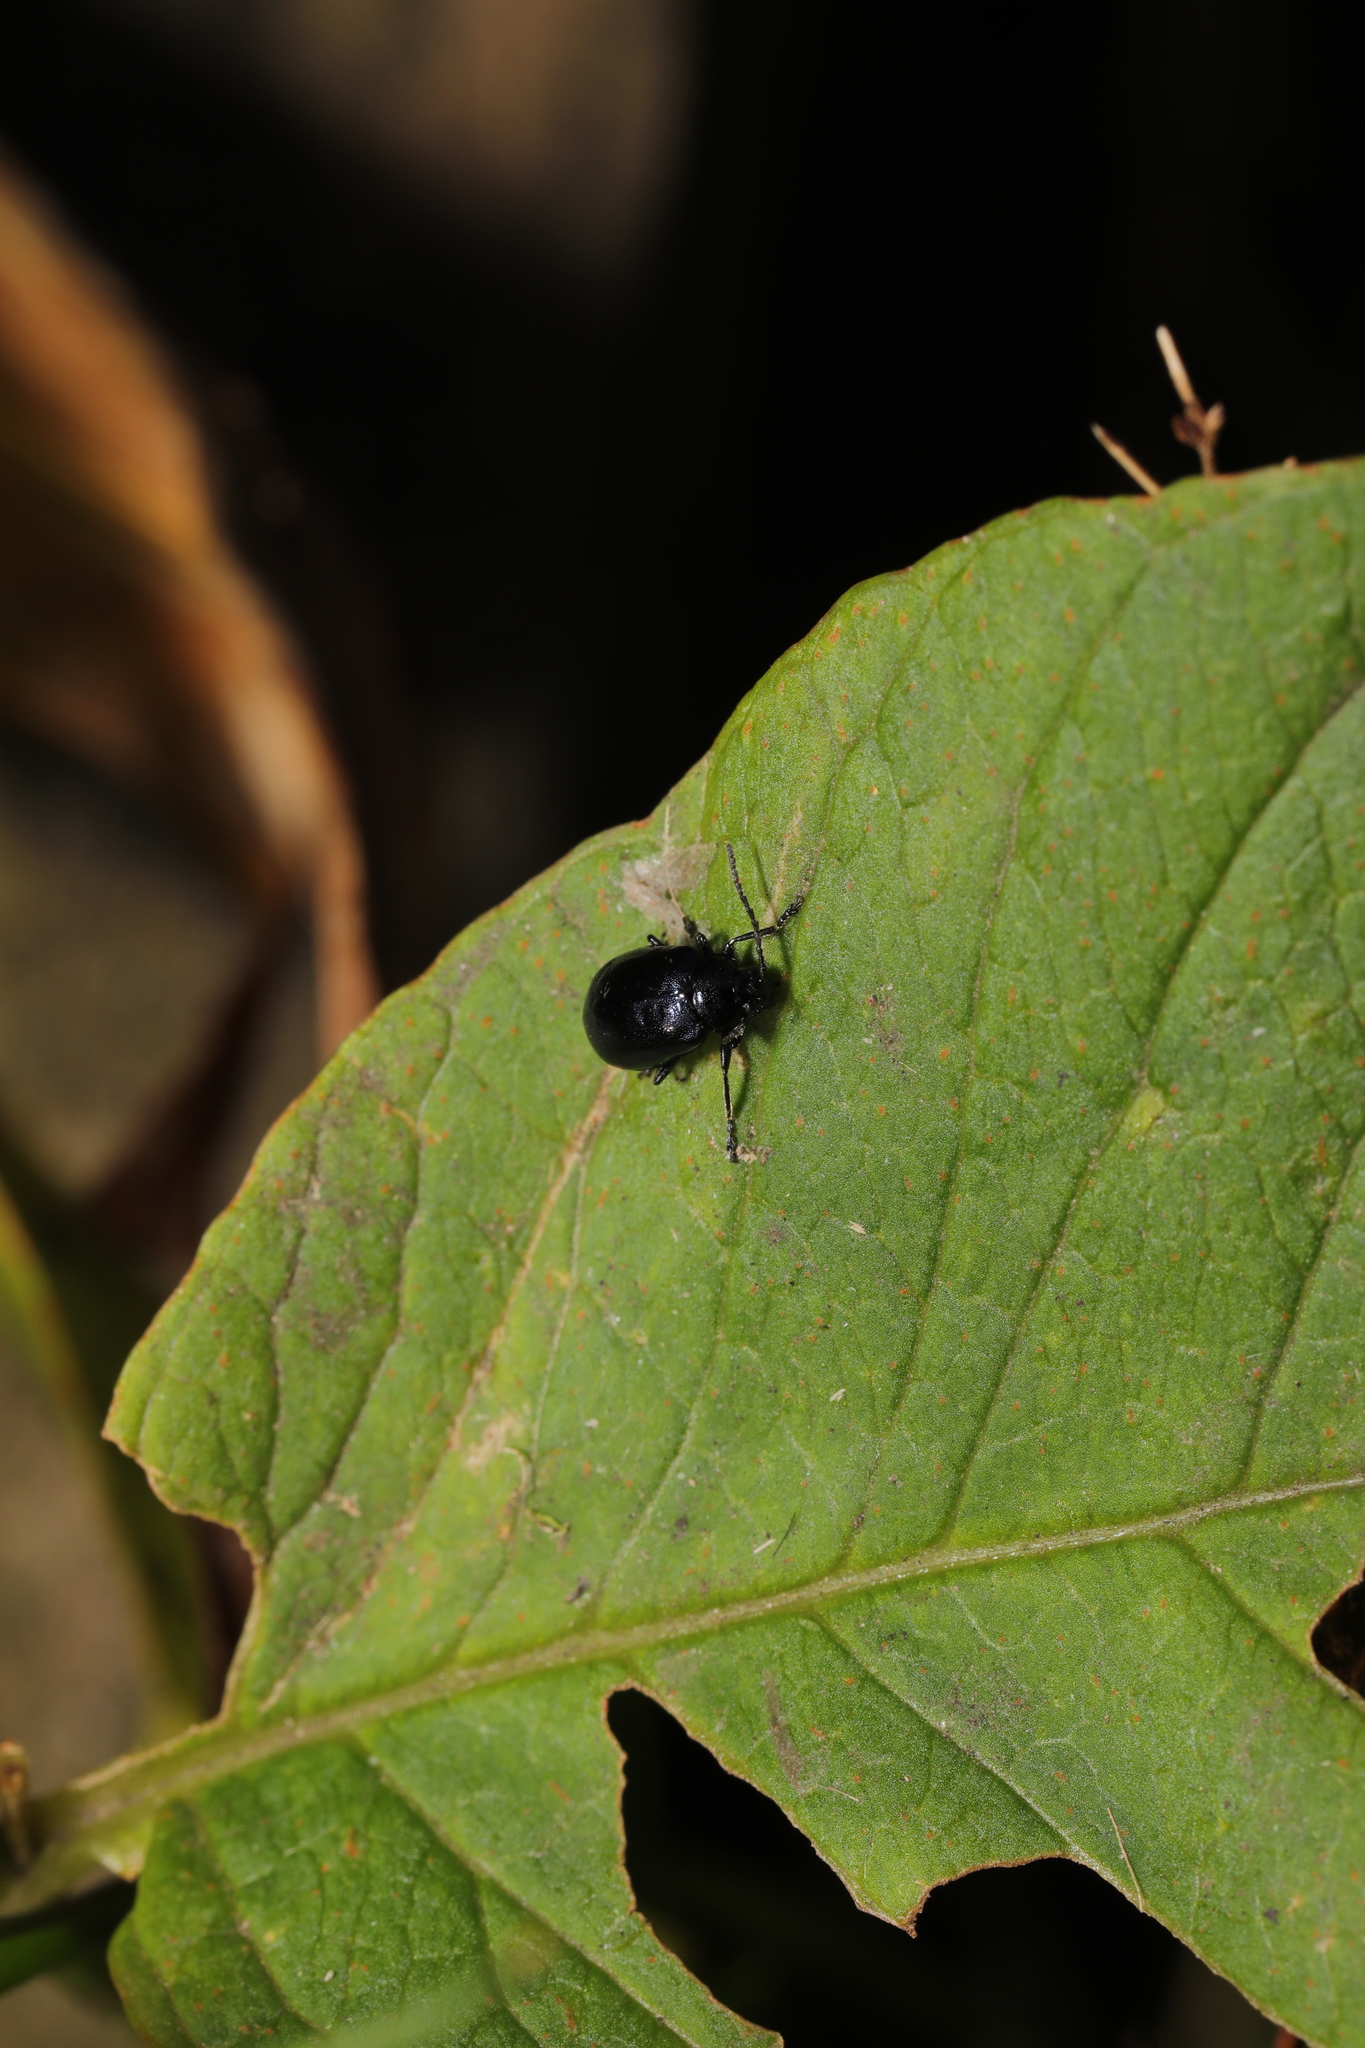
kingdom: Animalia
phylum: Arthropoda
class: Insecta
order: Coleoptera
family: Chrysomelidae
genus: Agelastica
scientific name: Agelastica alni
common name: Alder leaf beetle
